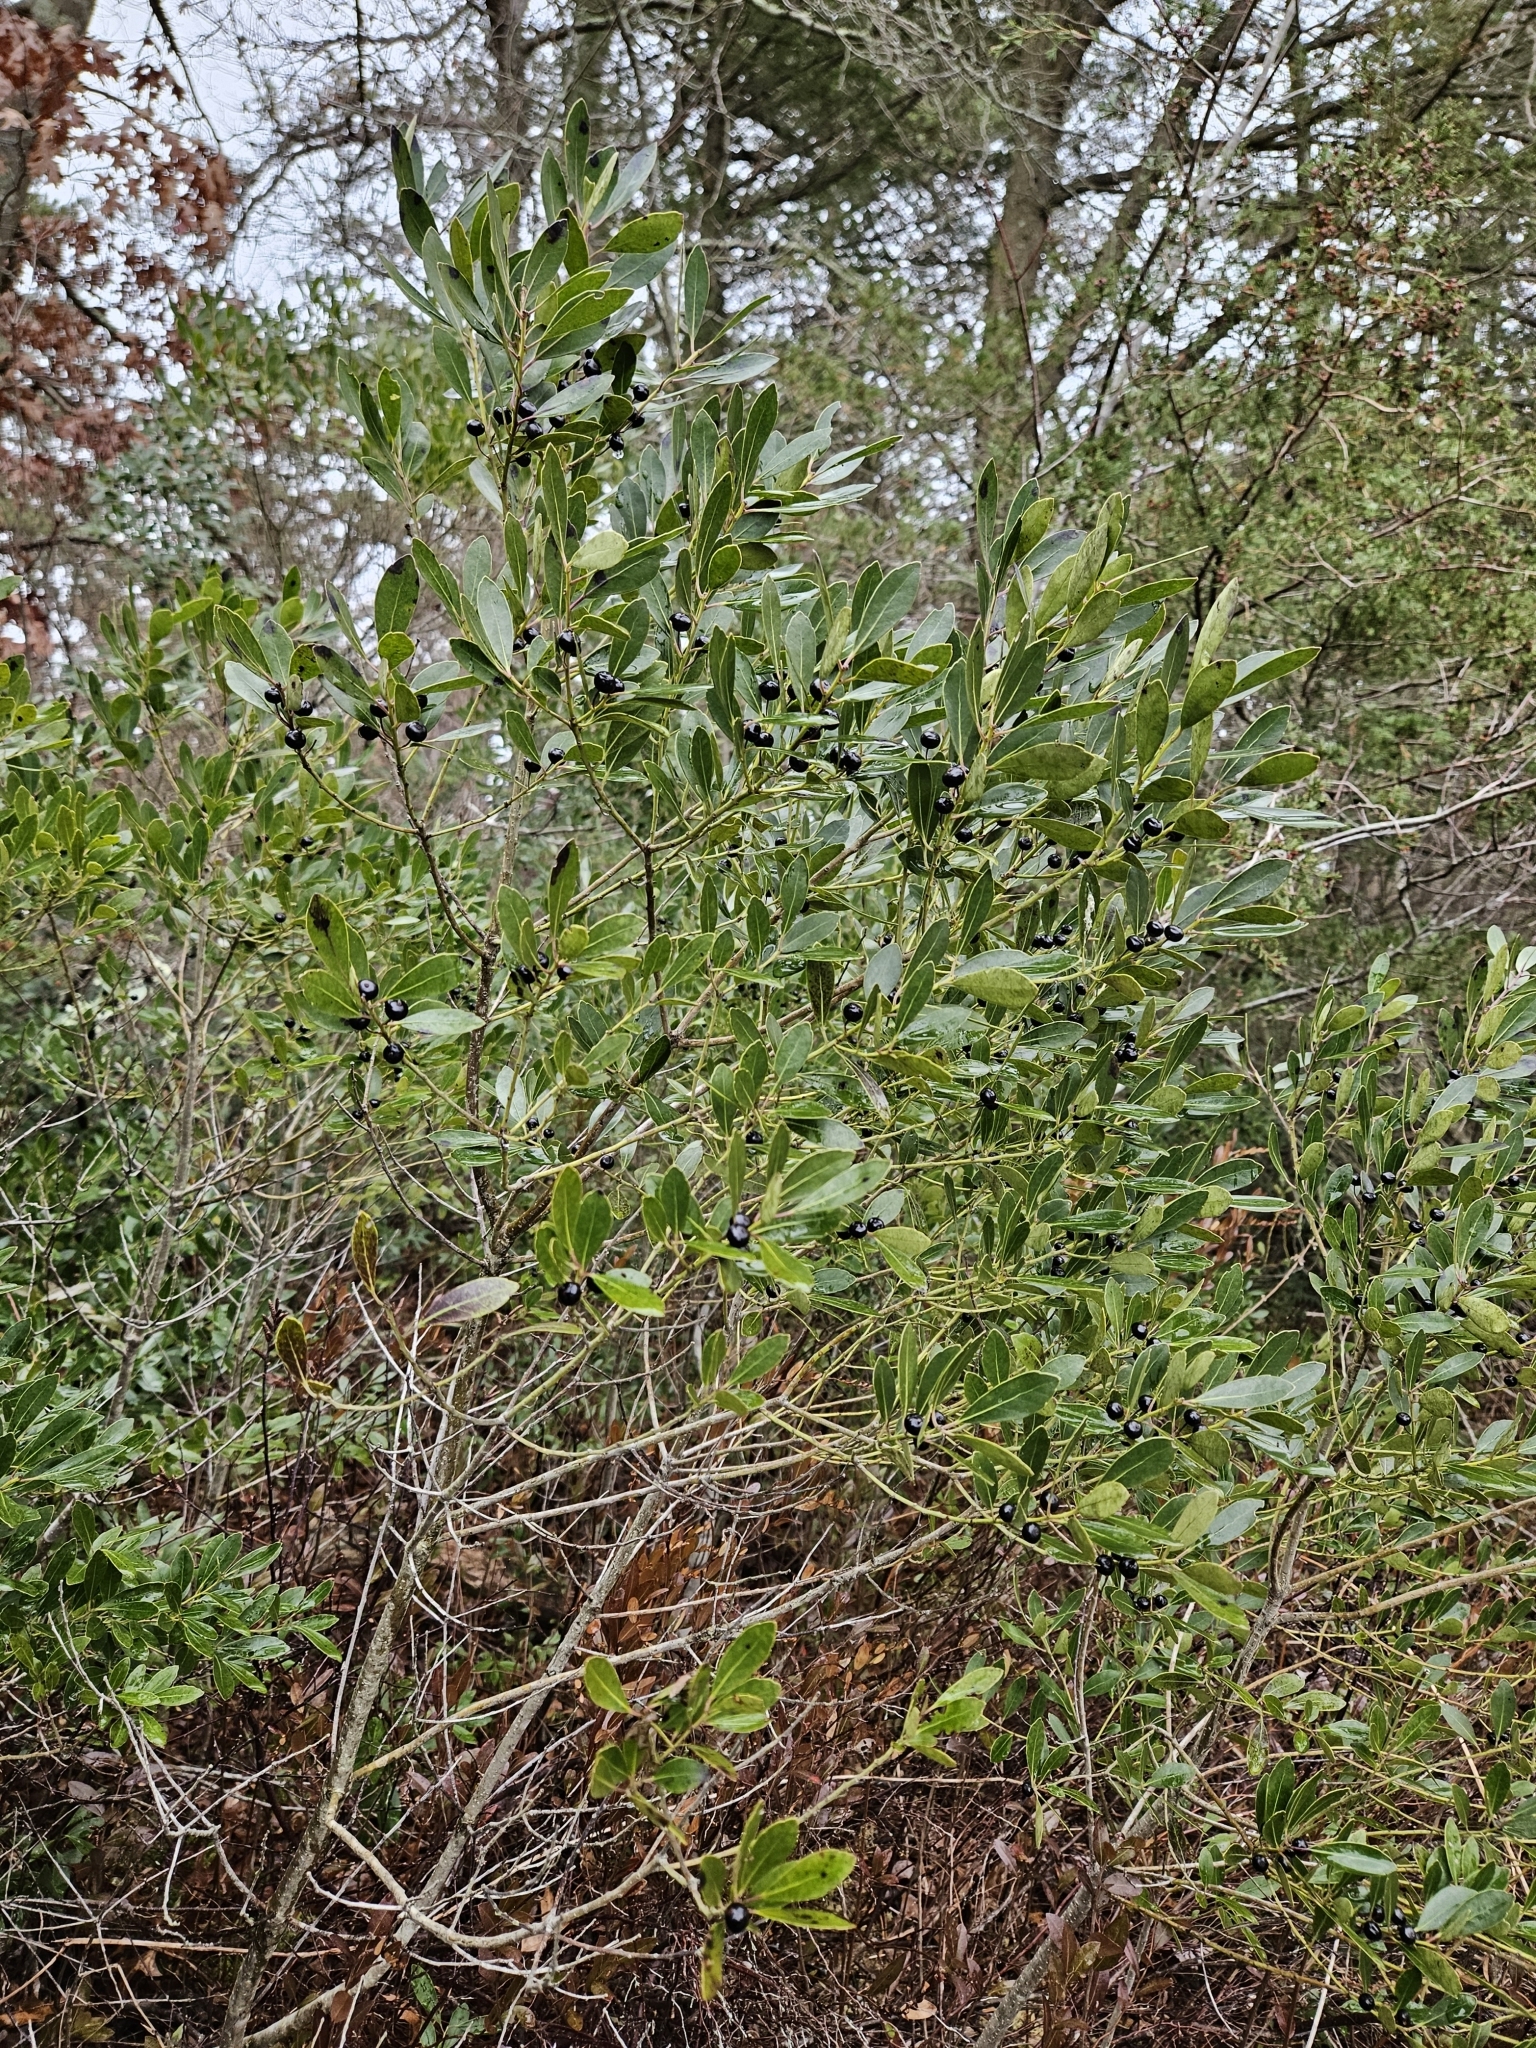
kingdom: Plantae
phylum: Tracheophyta
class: Magnoliopsida
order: Aquifoliales
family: Aquifoliaceae
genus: Ilex
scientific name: Ilex glabra
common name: Bitter gallberry
